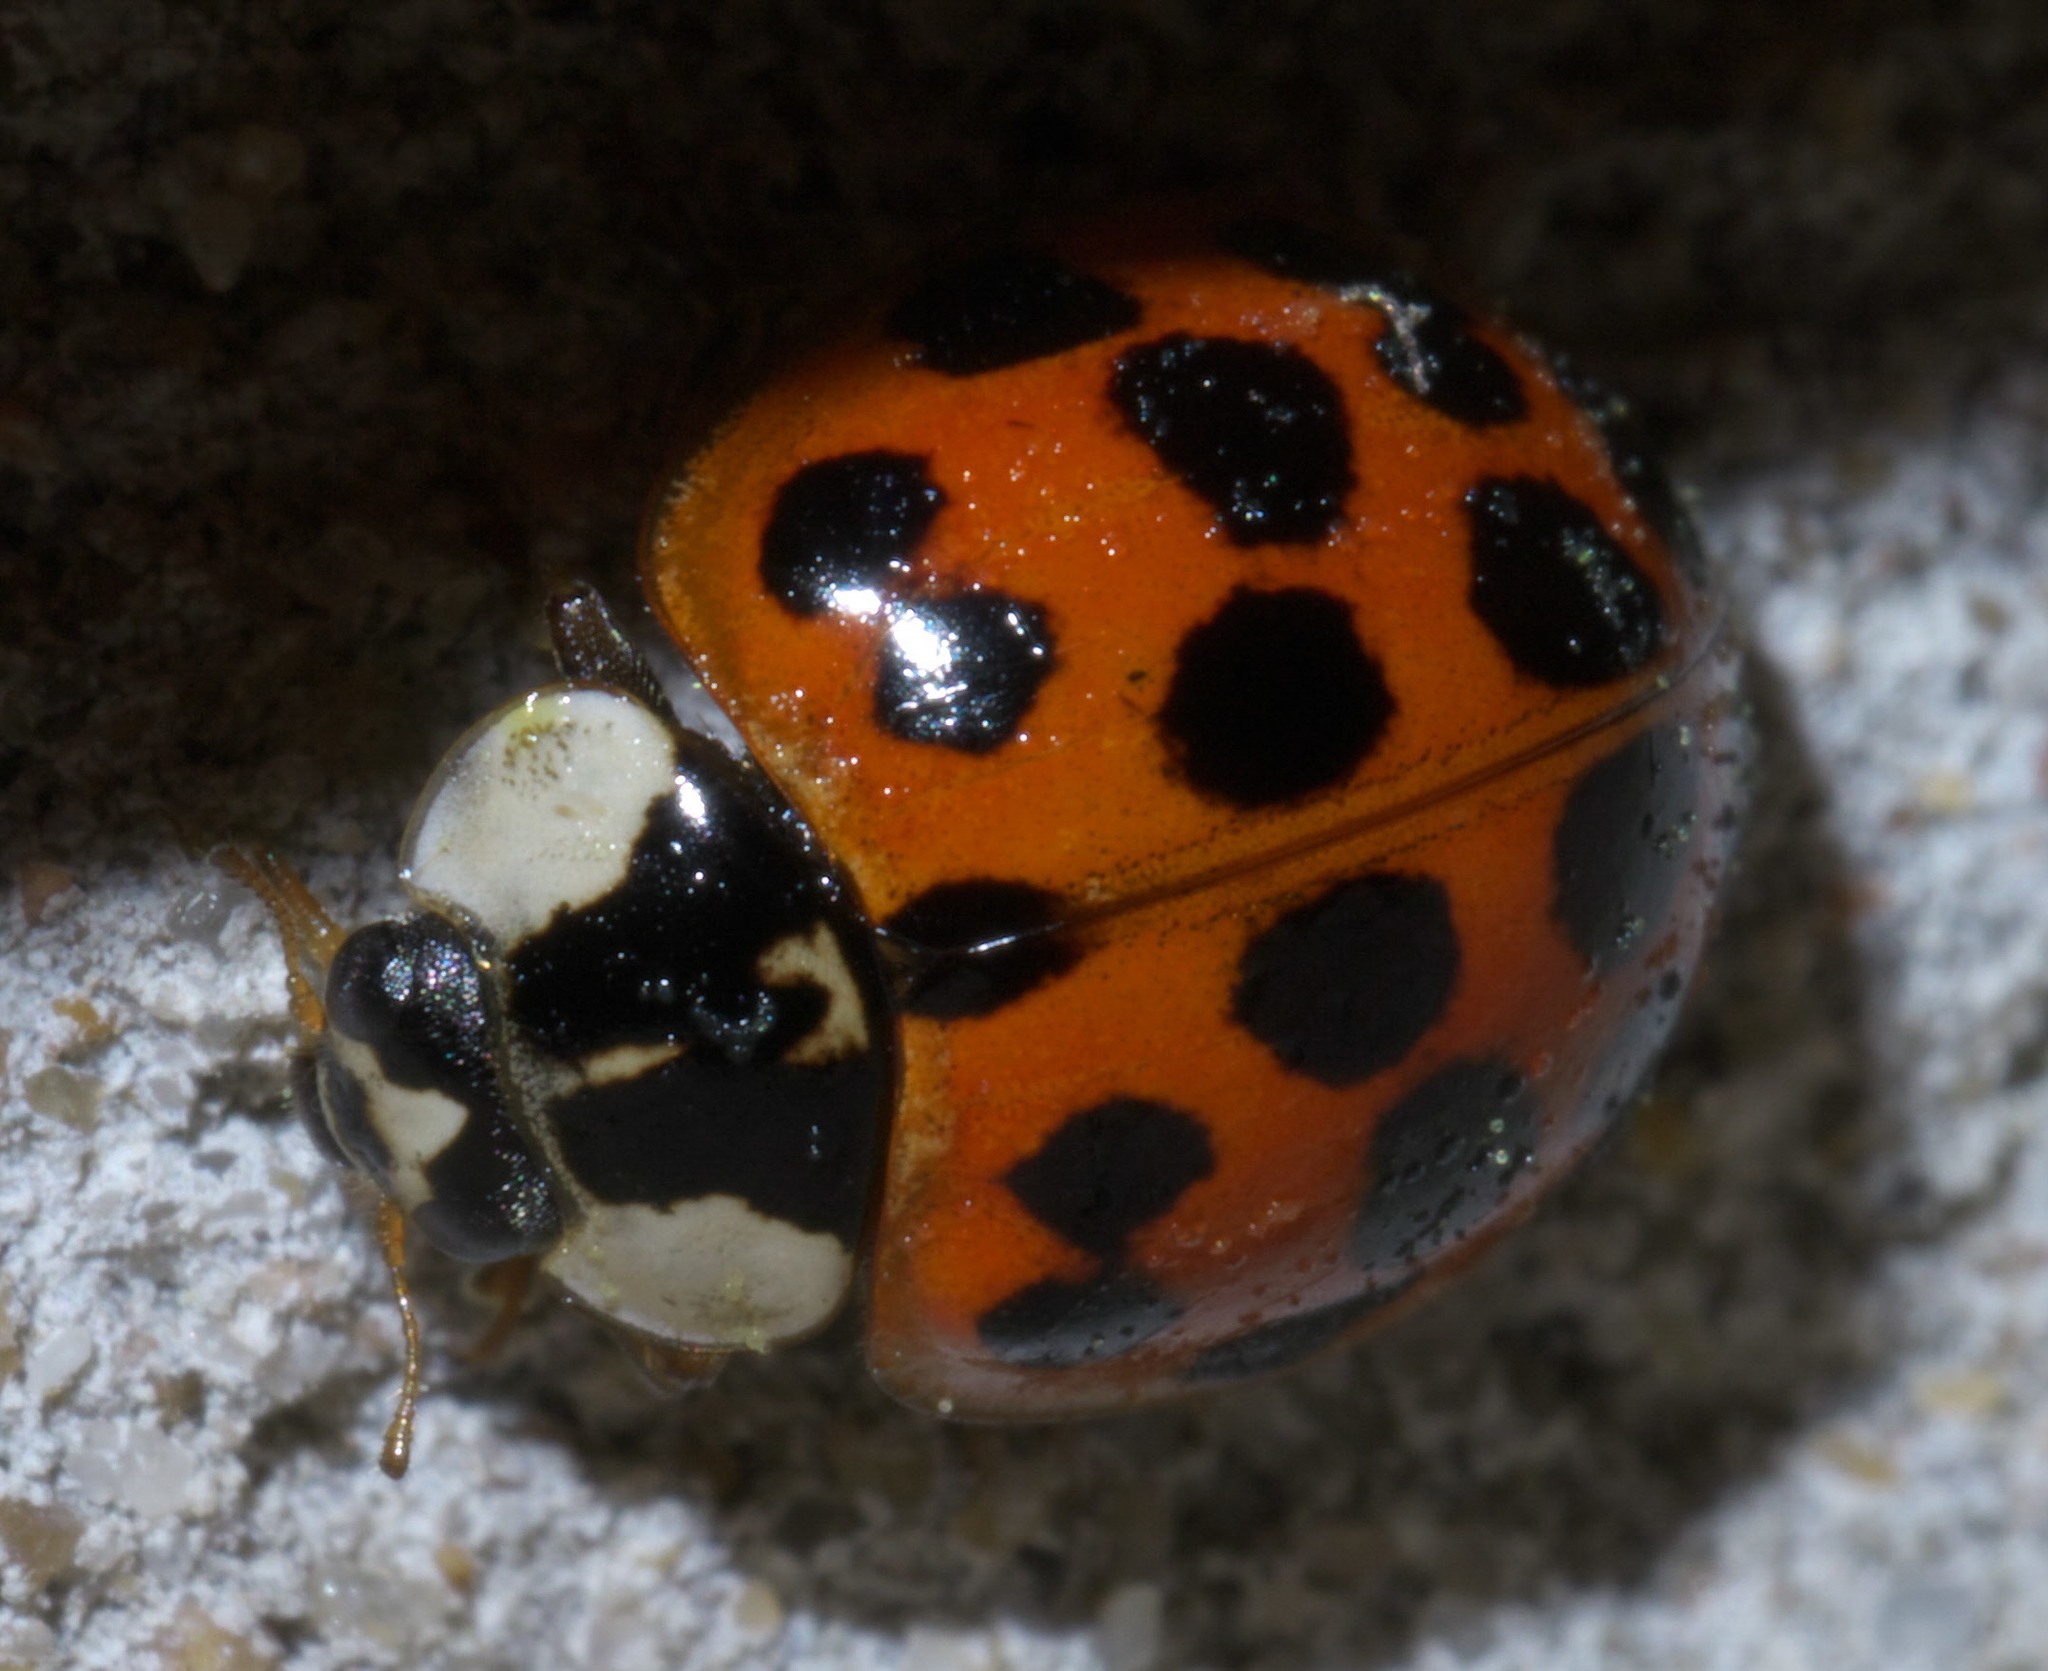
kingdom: Animalia
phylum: Arthropoda
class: Insecta
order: Coleoptera
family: Coccinellidae
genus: Harmonia
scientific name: Harmonia axyridis
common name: Harlequin ladybird
